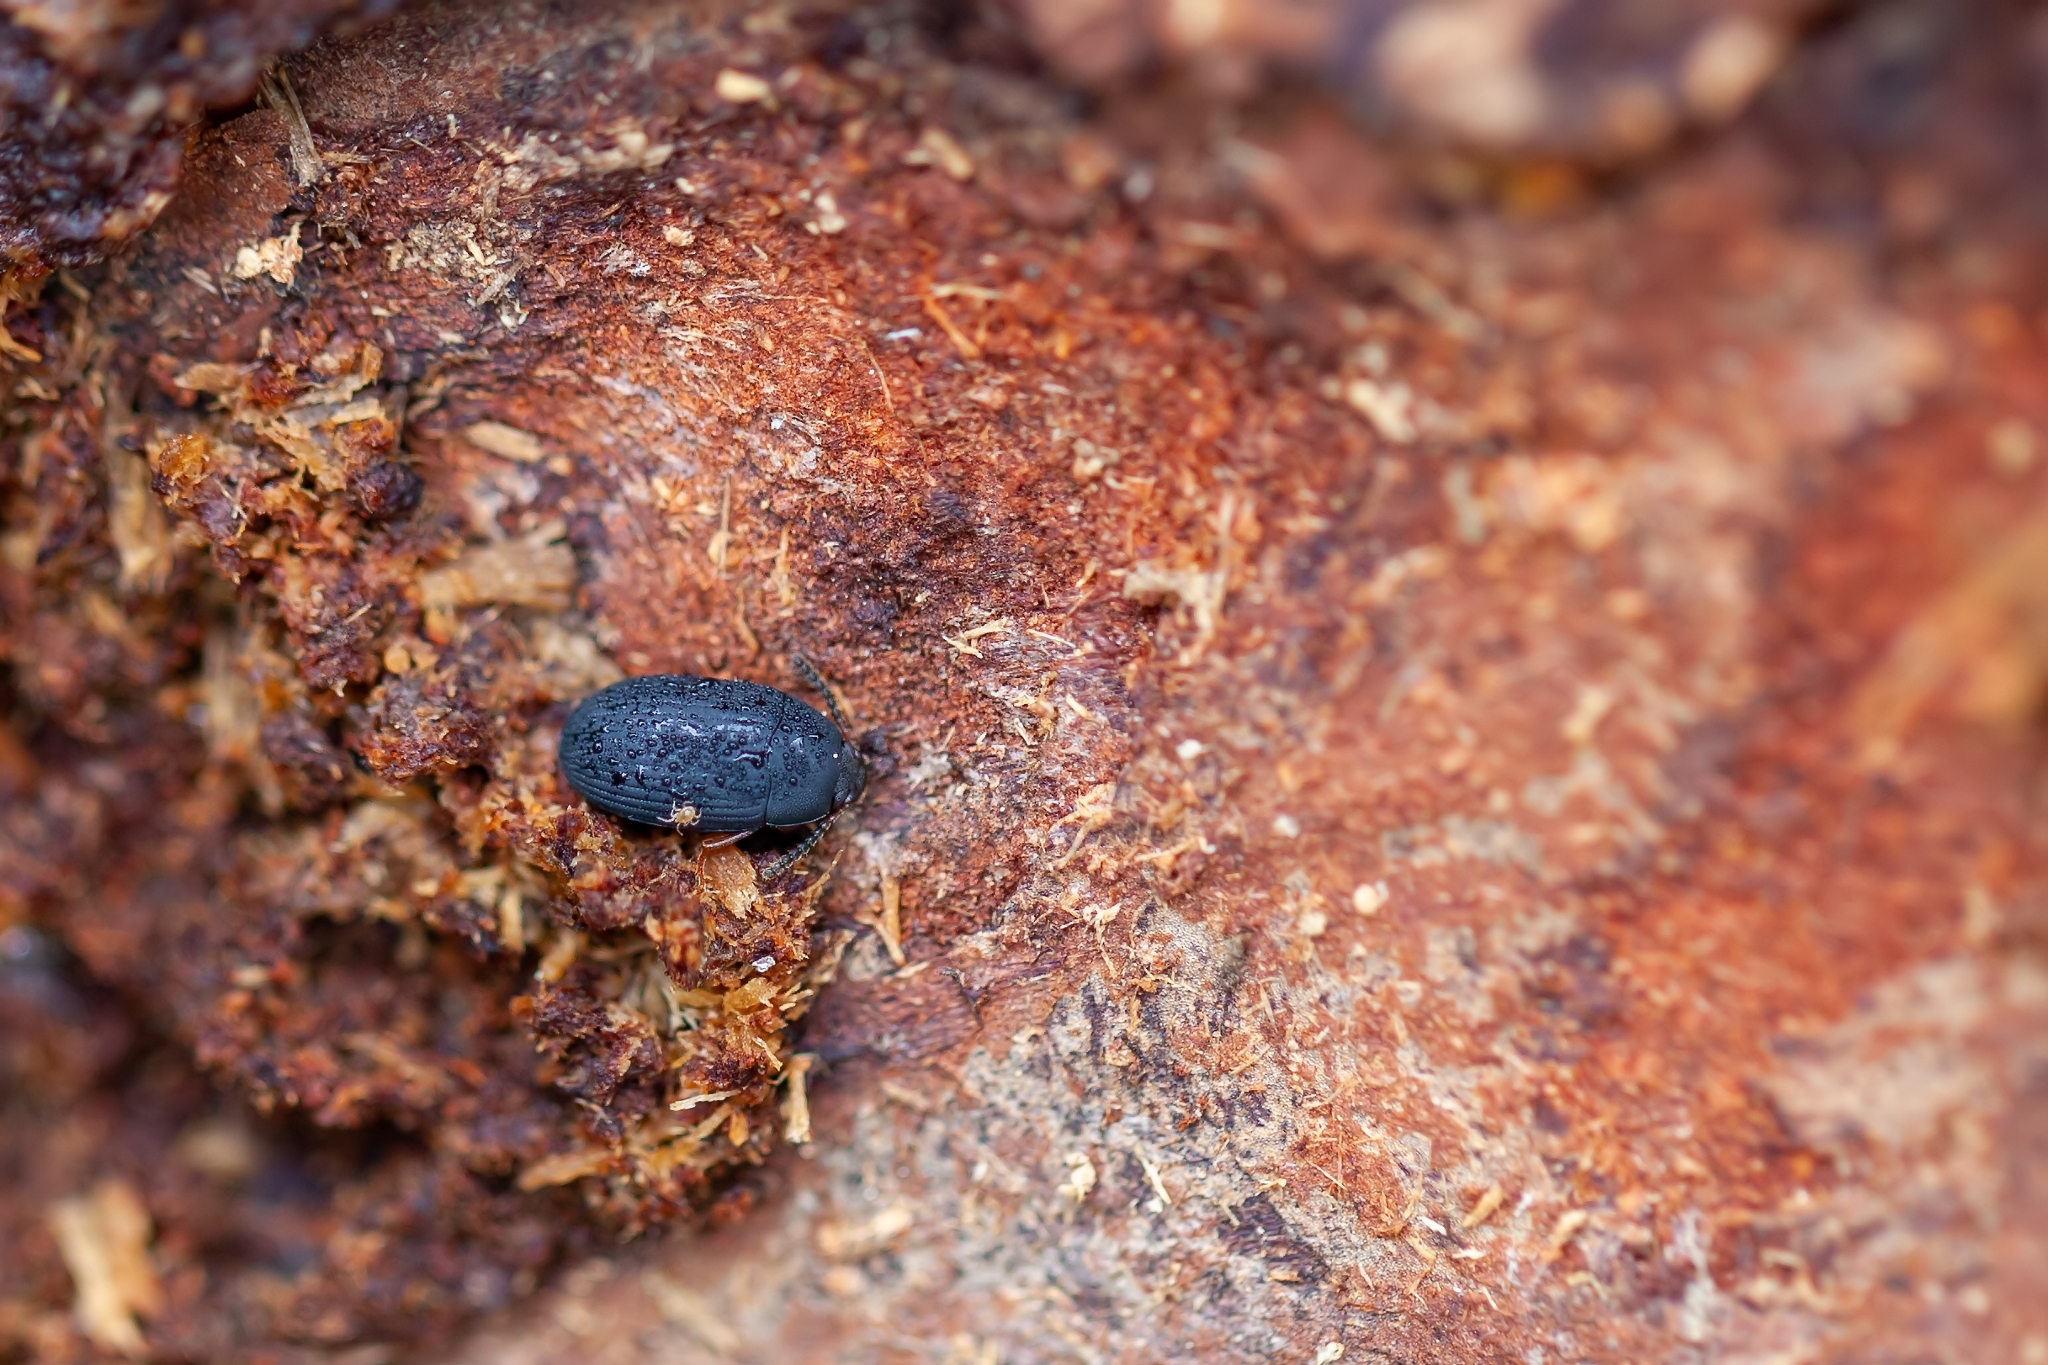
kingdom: Animalia
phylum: Arthropoda
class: Insecta
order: Coleoptera
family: Tenebrionidae
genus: Platydema
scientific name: Platydema flavipes
